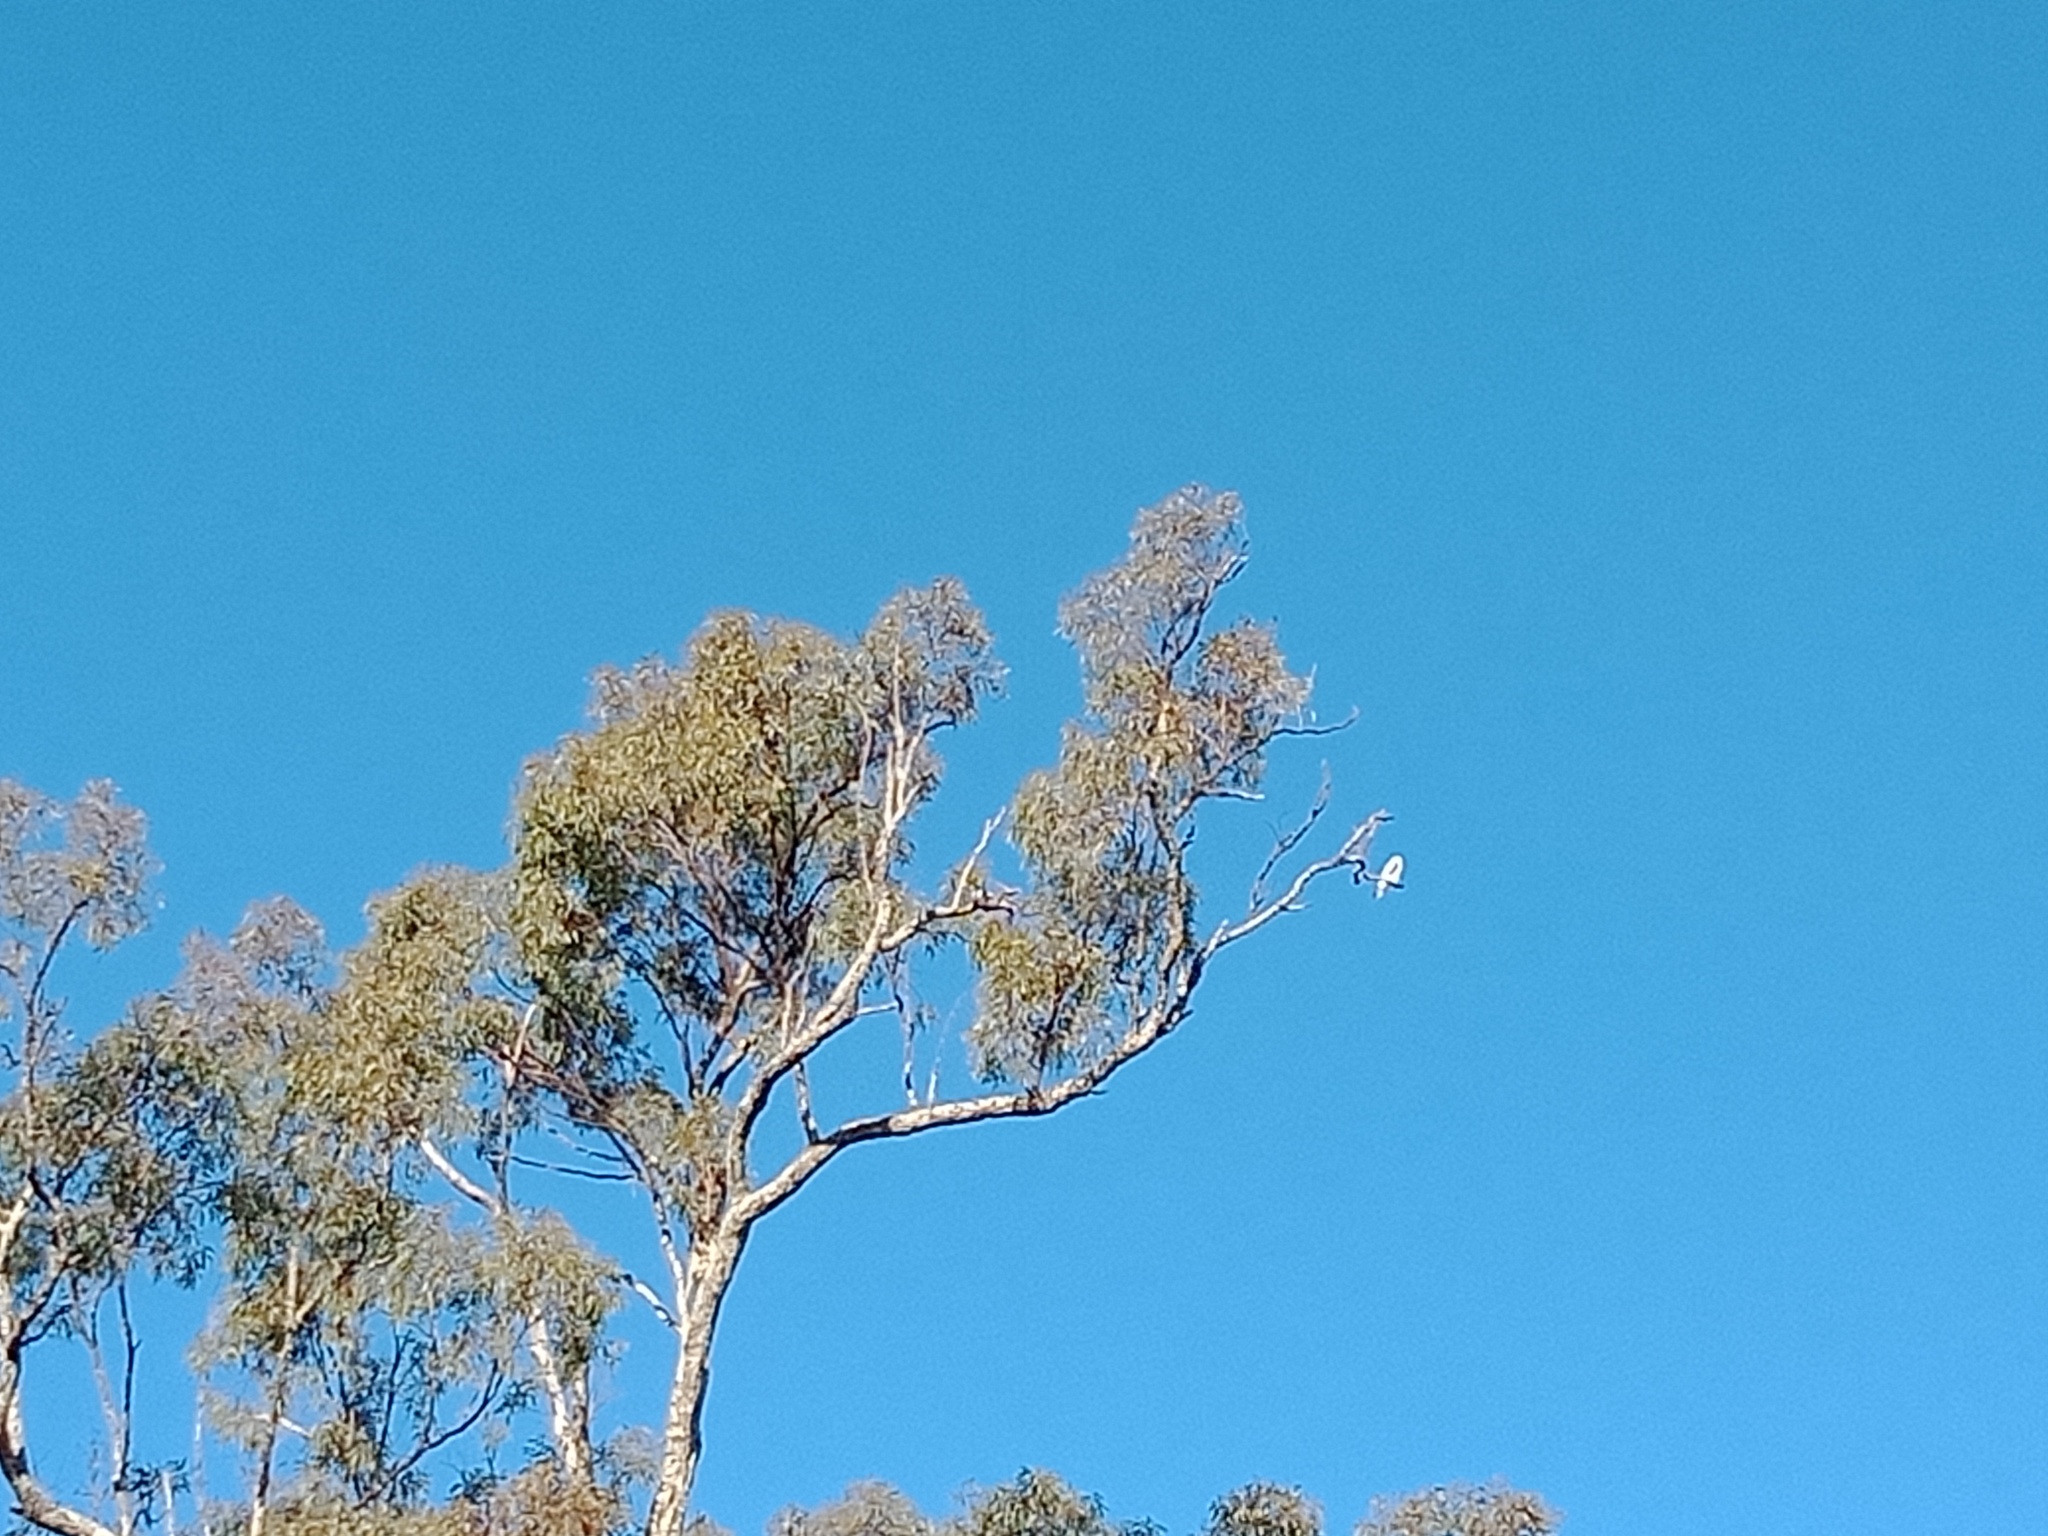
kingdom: Animalia
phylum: Chordata
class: Aves
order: Accipitriformes
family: Accipitridae
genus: Elanus
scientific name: Elanus axillaris
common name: Black-shouldered kite
